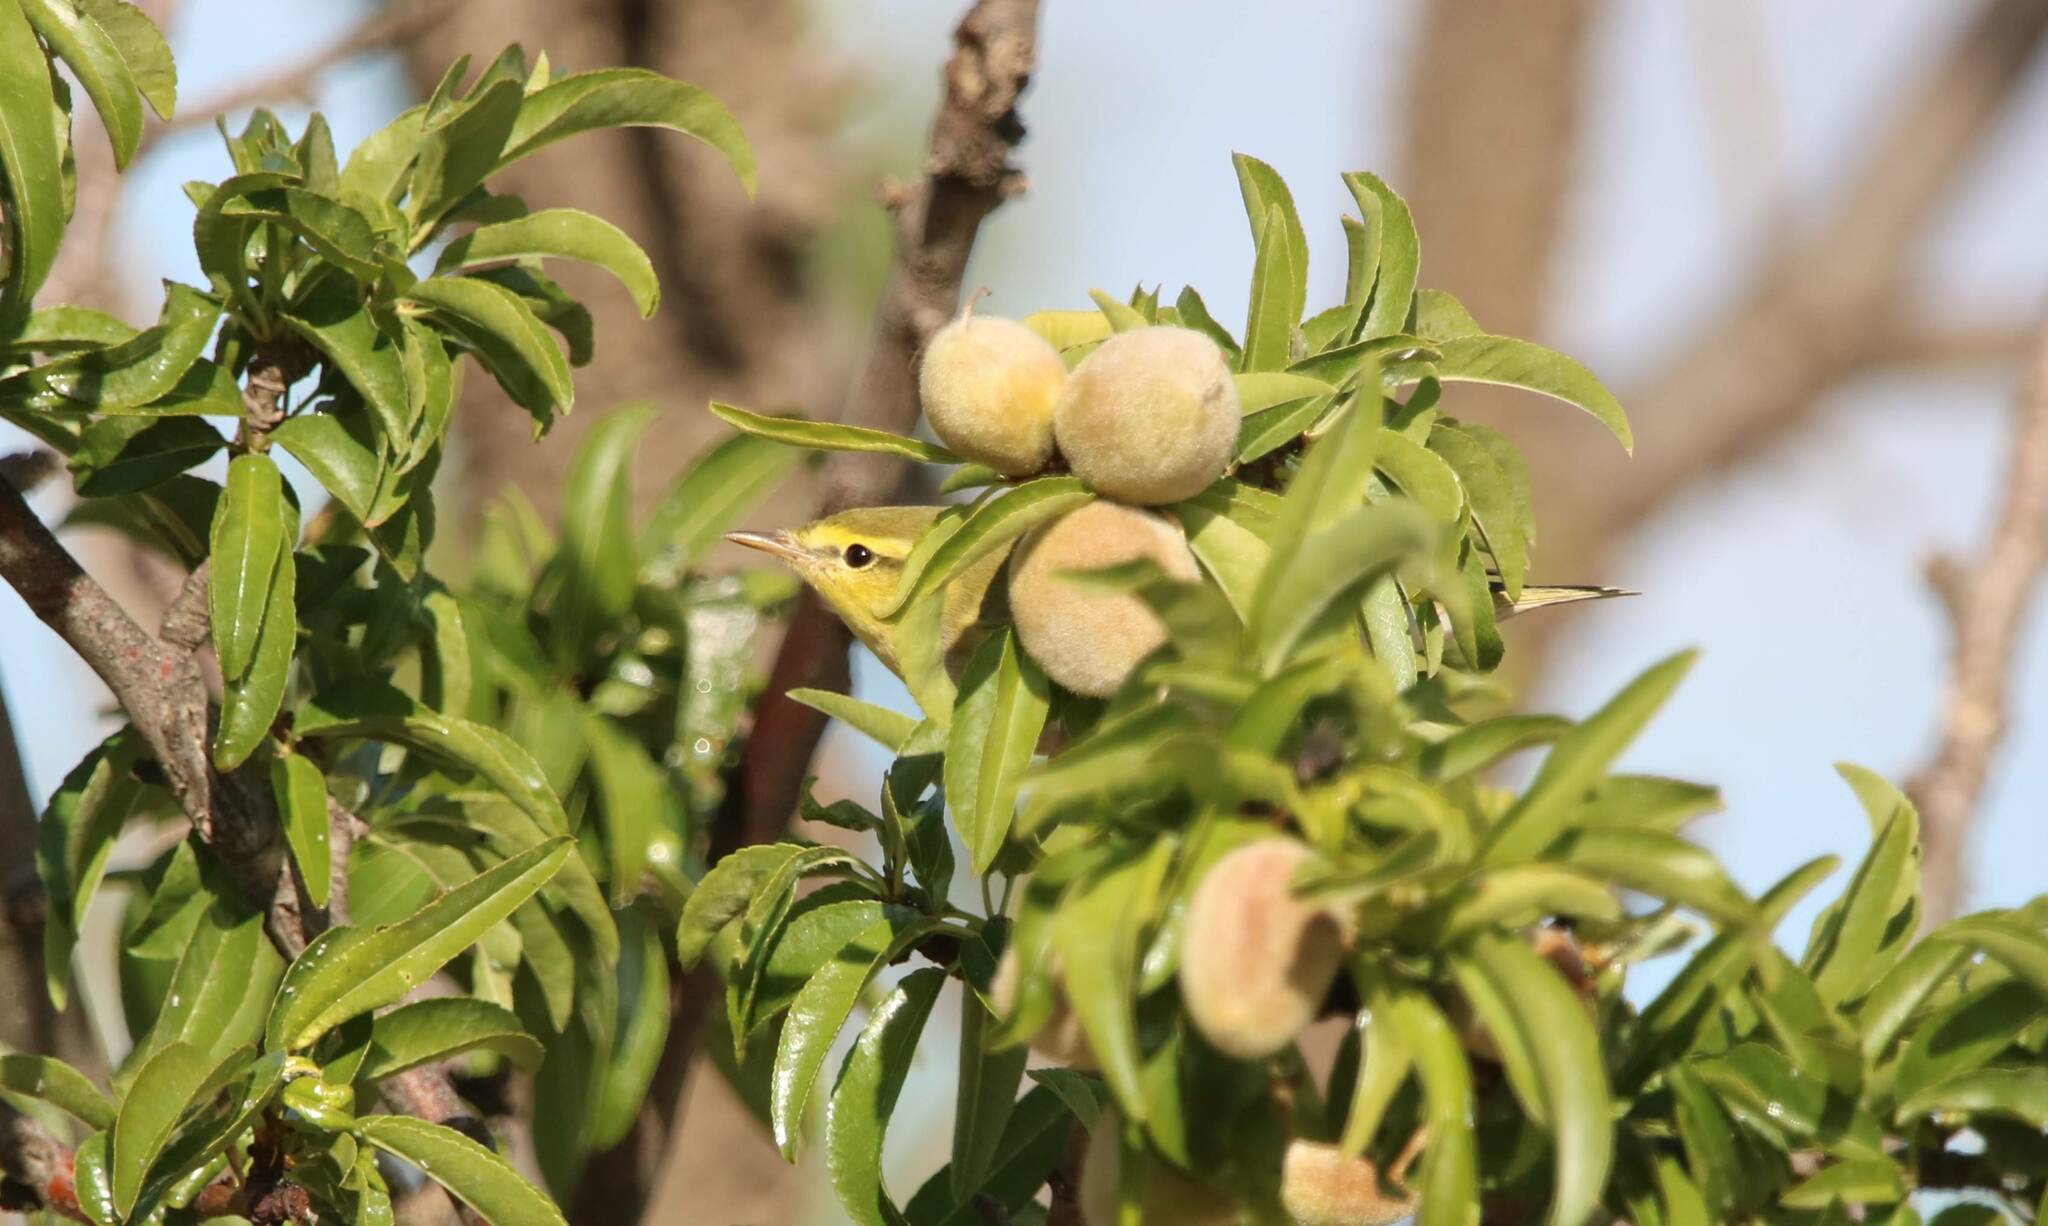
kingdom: Animalia
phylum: Chordata
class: Aves
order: Passeriformes
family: Phylloscopidae
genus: Phylloscopus
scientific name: Phylloscopus sibillatrix
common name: Wood warbler
